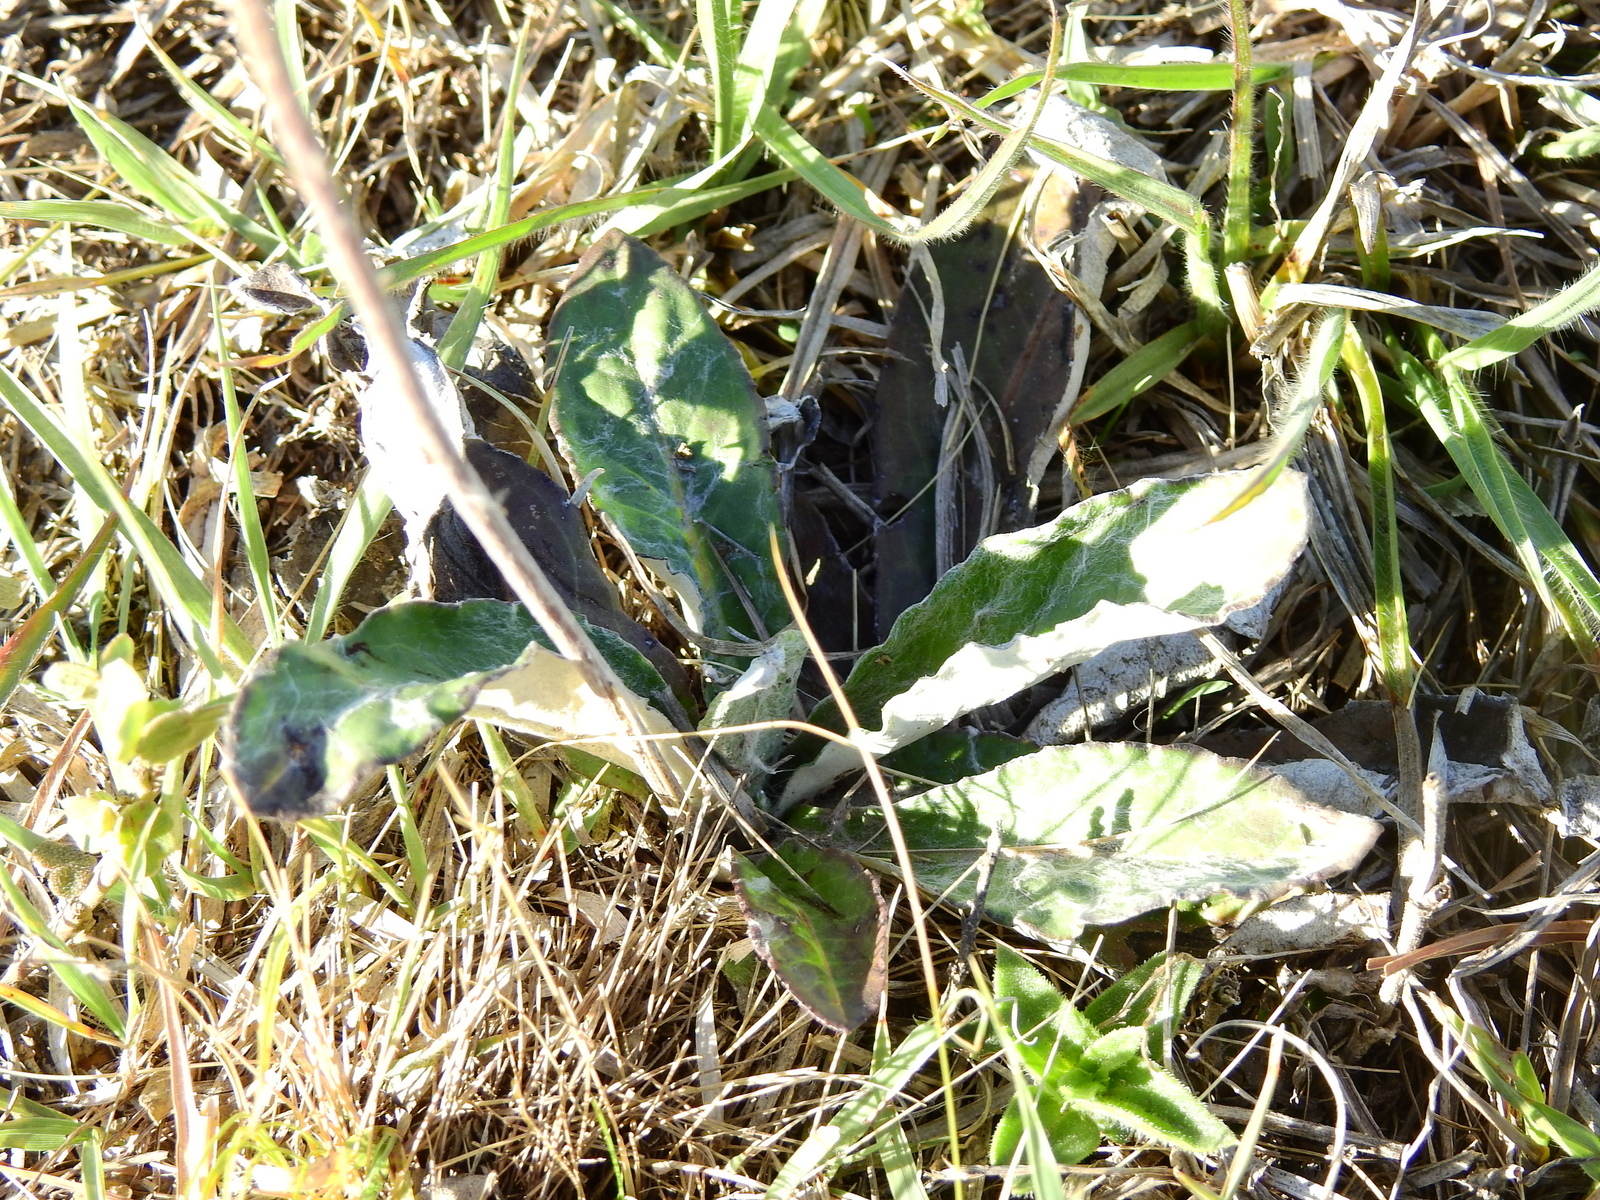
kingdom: Plantae
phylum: Tracheophyta
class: Magnoliopsida
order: Asterales
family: Asteraceae
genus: Chaptalia
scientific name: Chaptalia nutans
